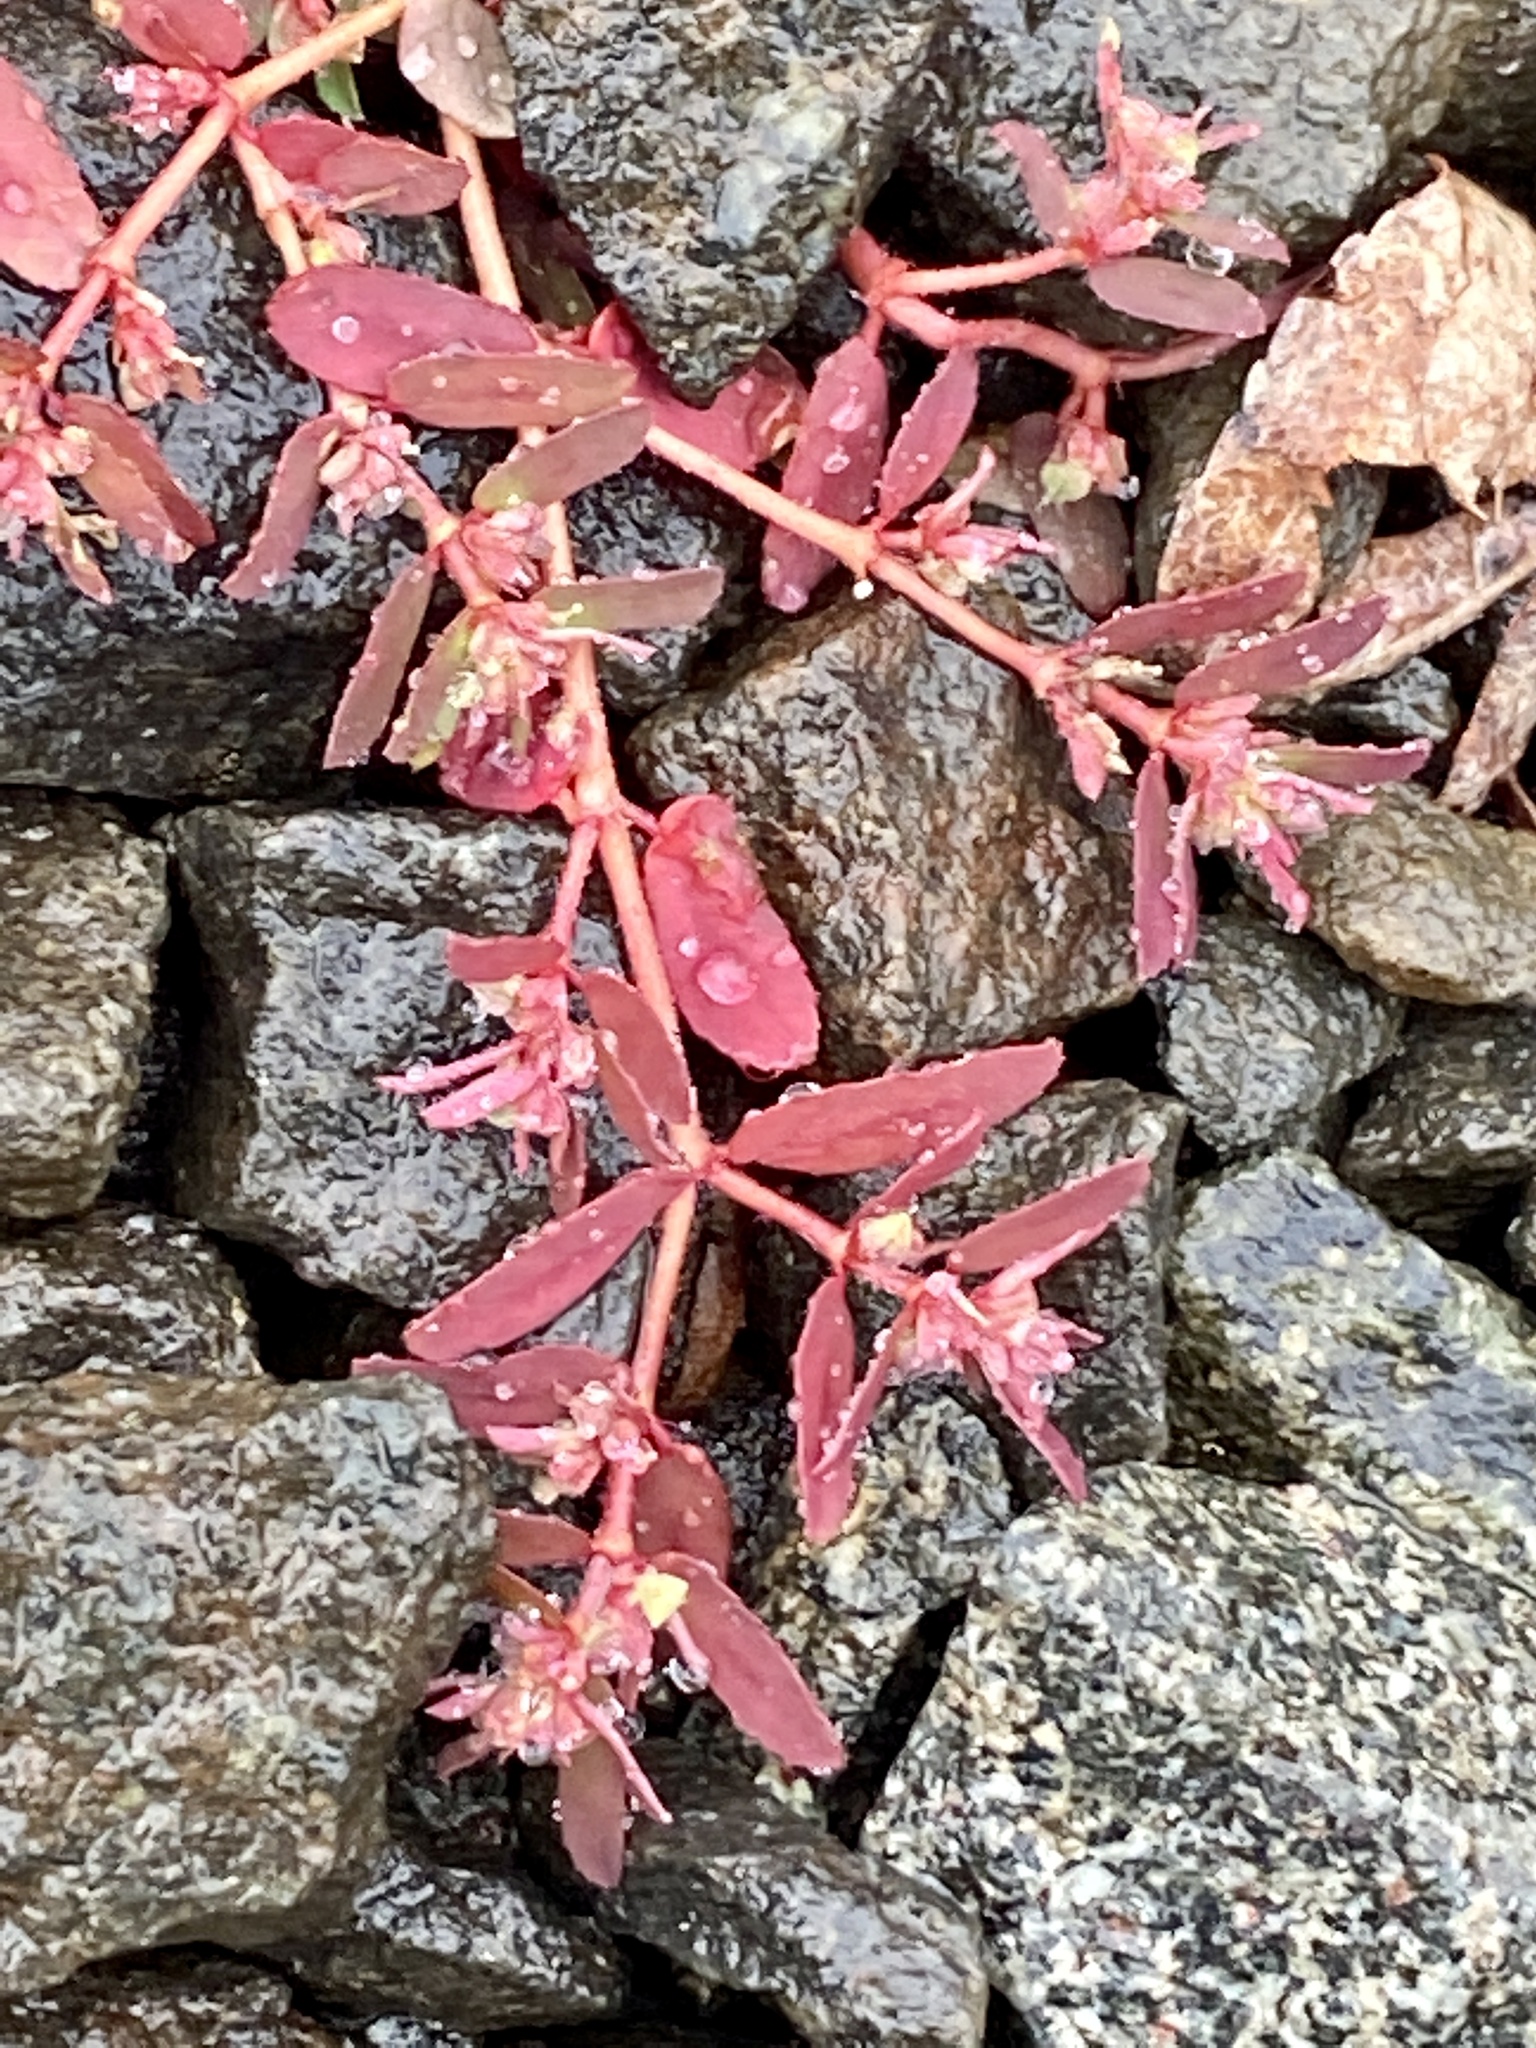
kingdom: Plantae
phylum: Tracheophyta
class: Magnoliopsida
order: Malpighiales
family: Euphorbiaceae
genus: Euphorbia
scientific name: Euphorbia maculata
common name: Spotted spurge
